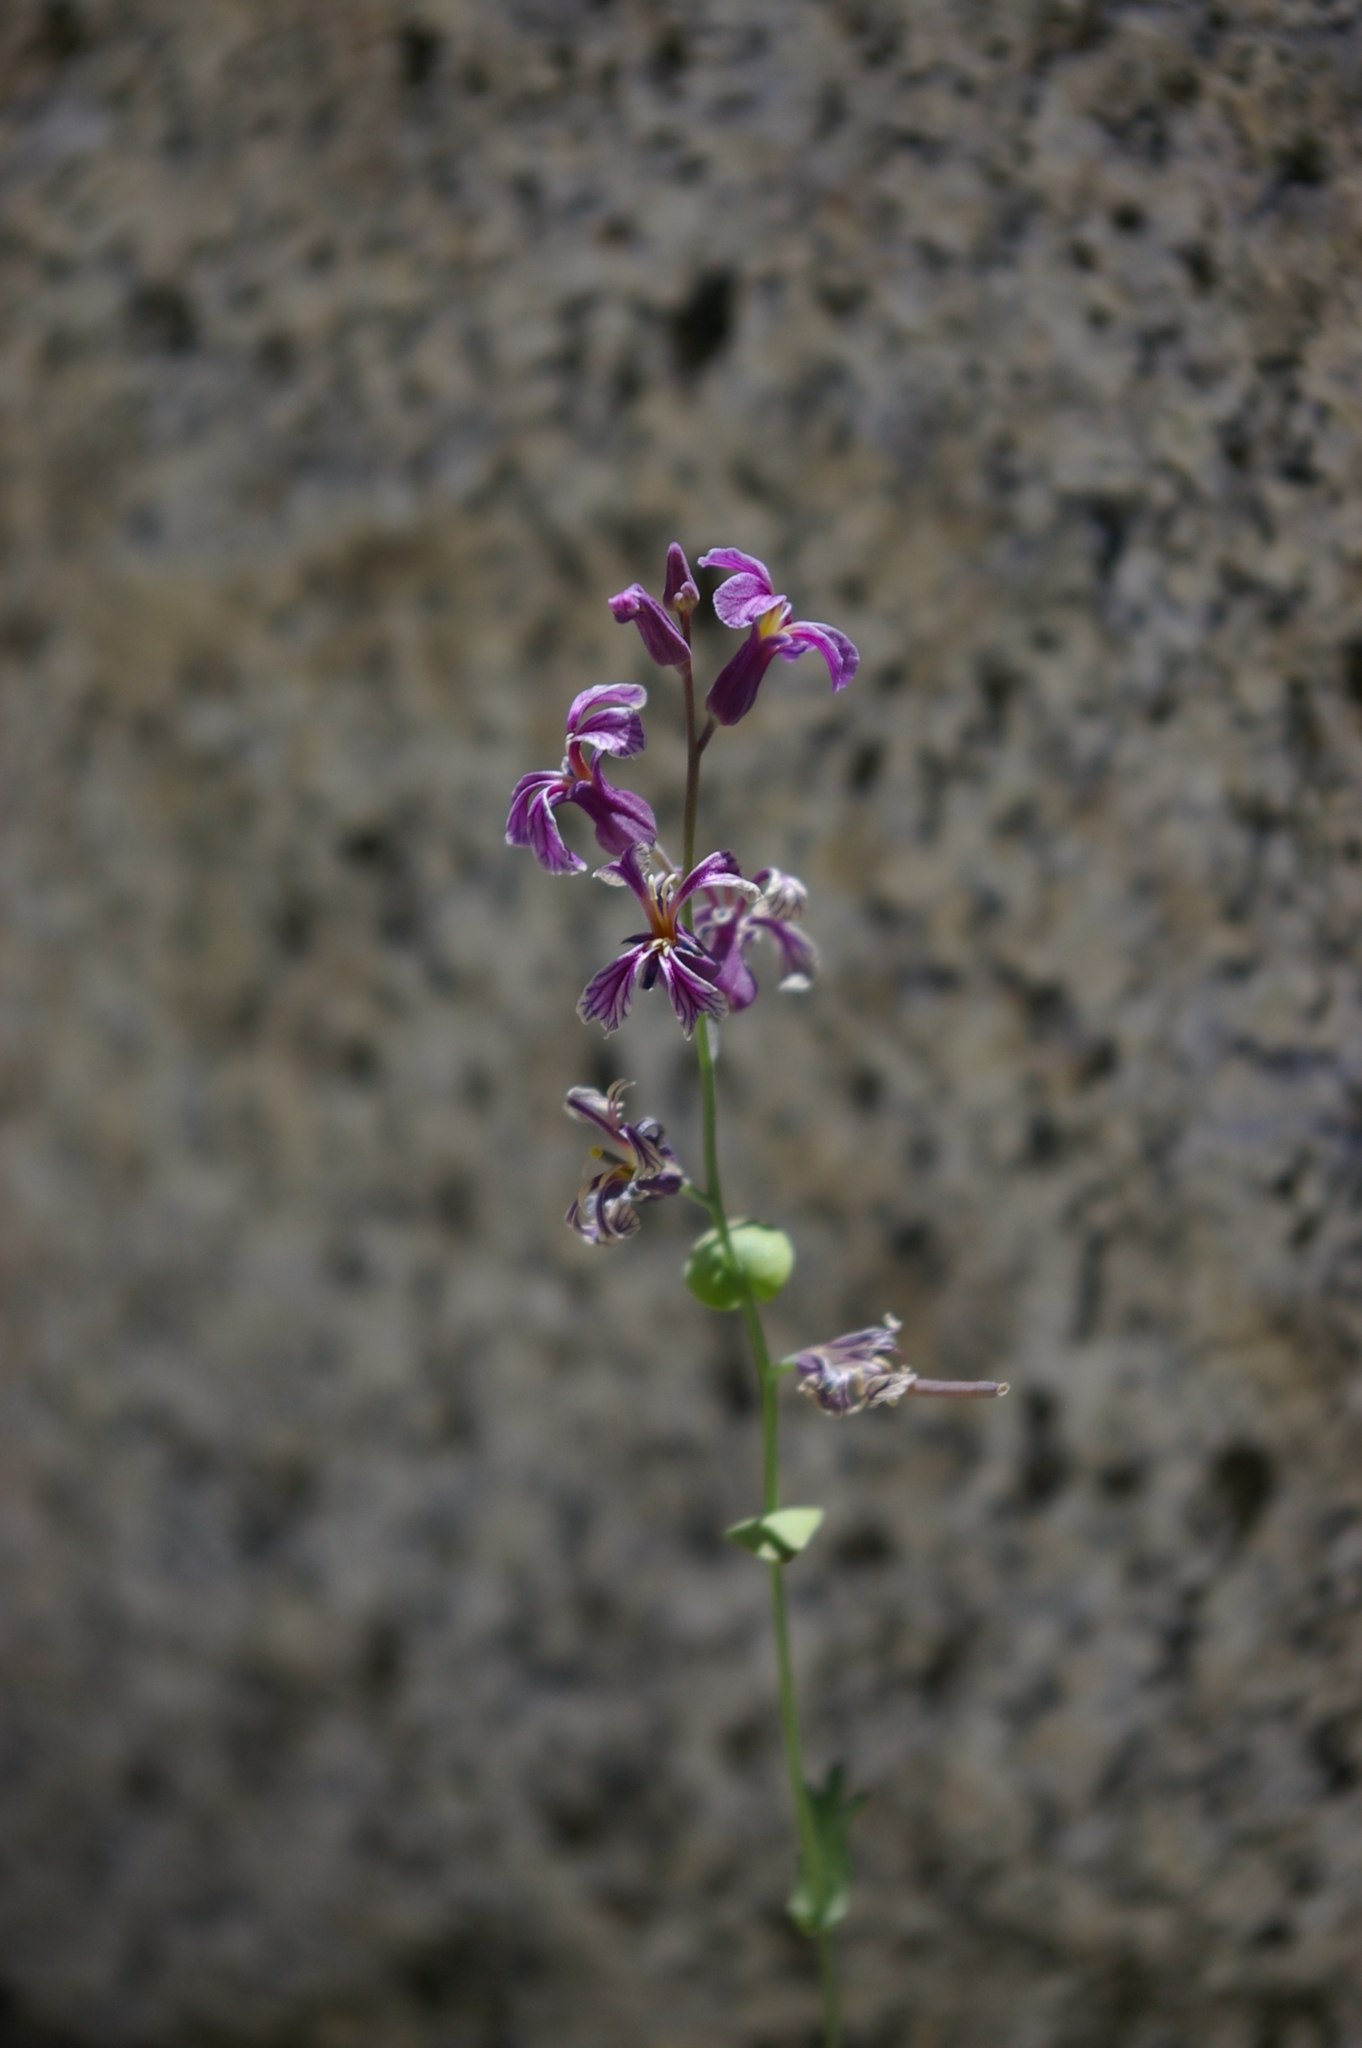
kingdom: Plantae
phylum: Tracheophyta
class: Magnoliopsida
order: Brassicales
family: Brassicaceae
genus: Streptanthus
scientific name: Streptanthus fenestratus
